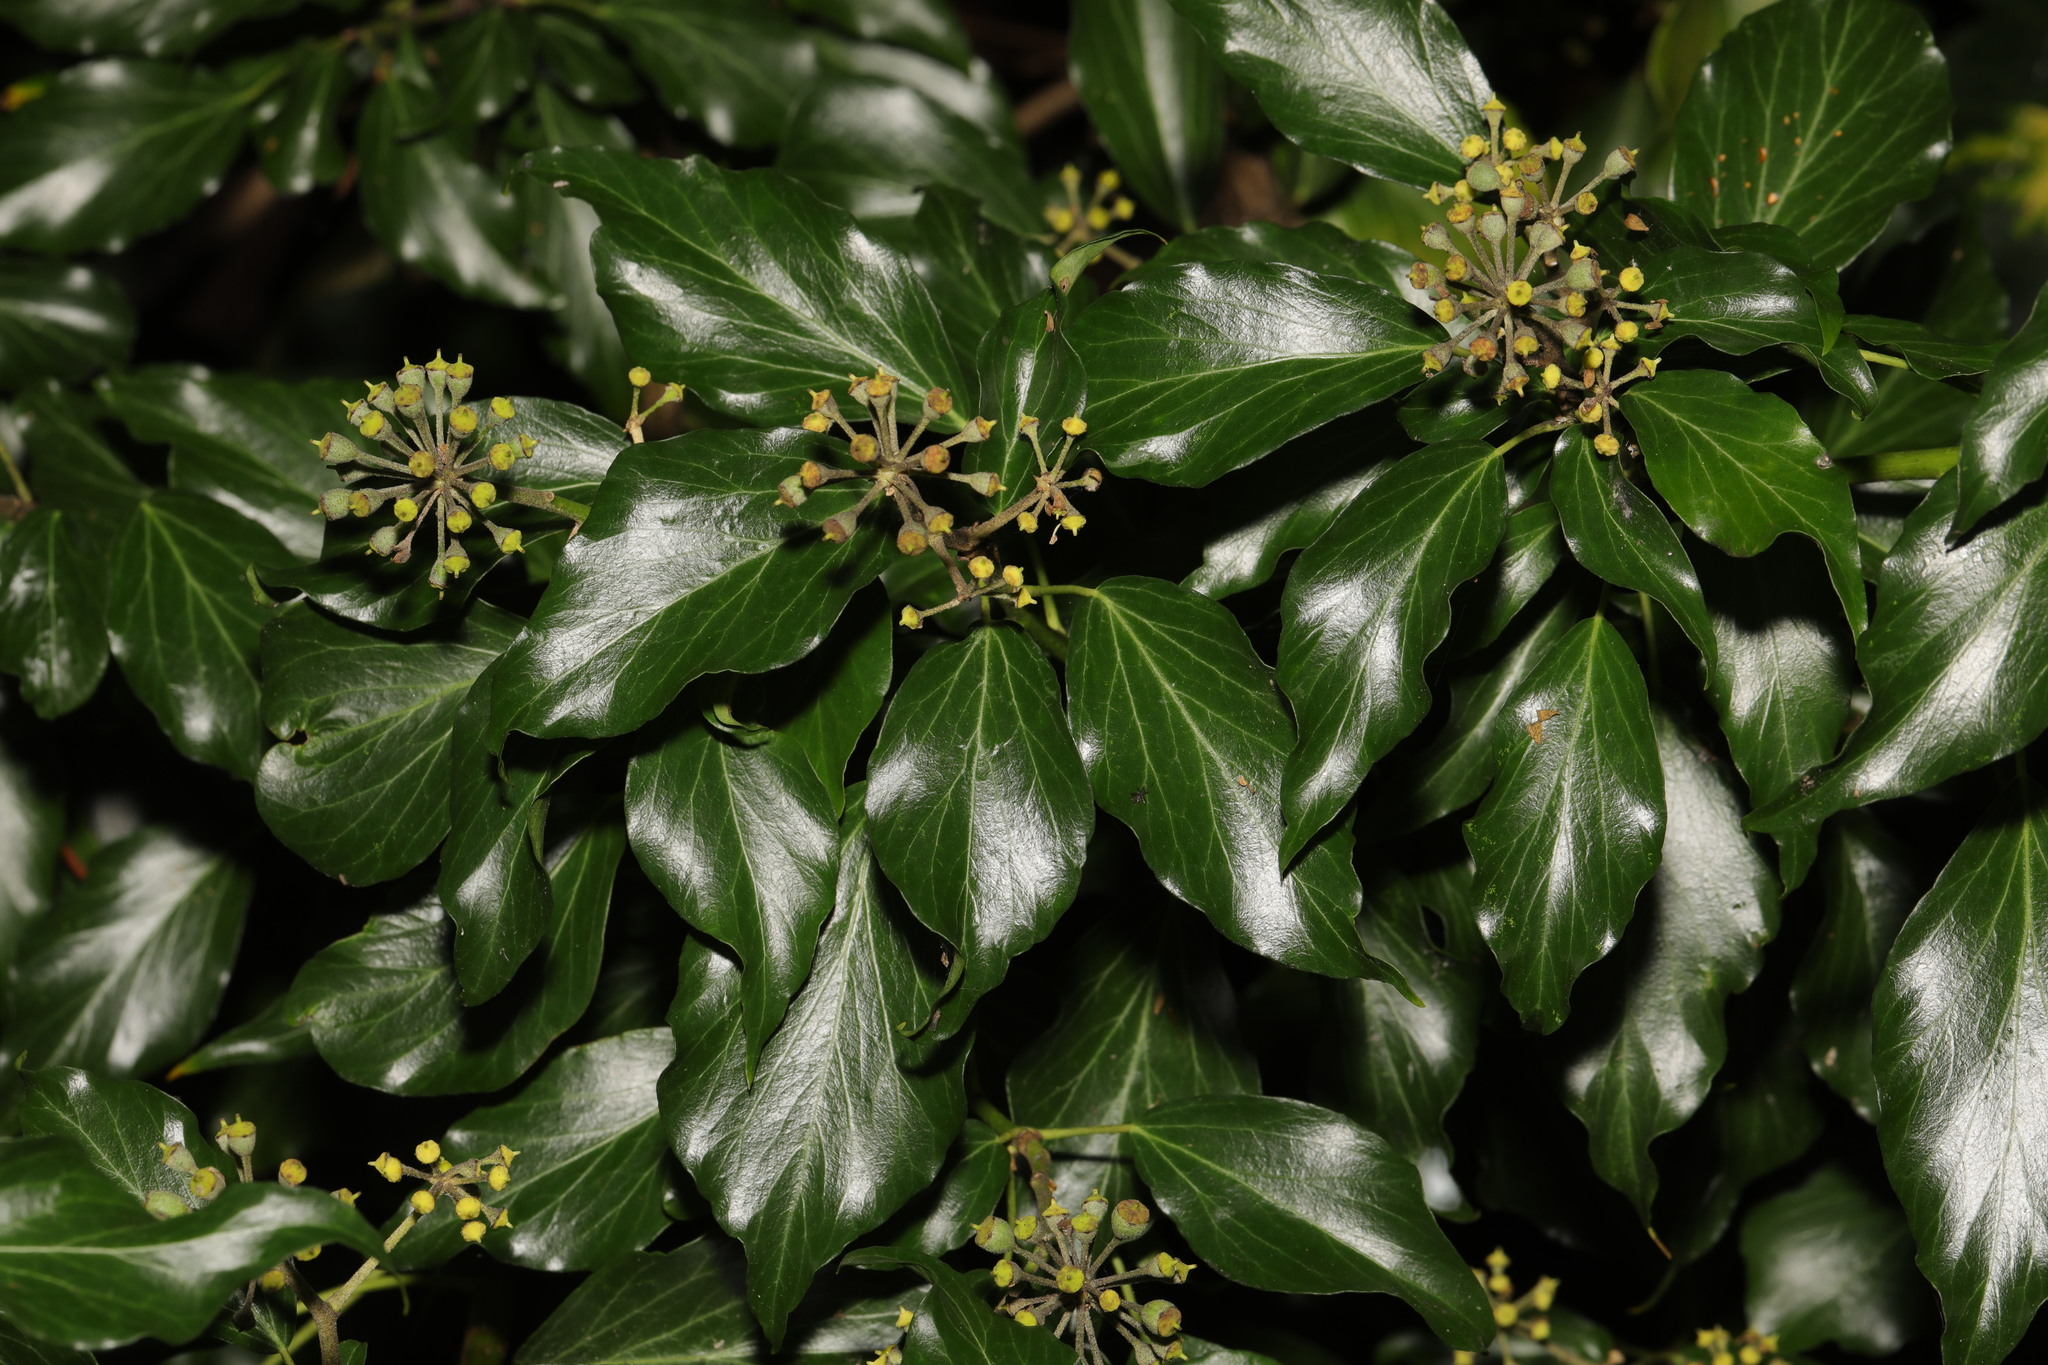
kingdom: Plantae
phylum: Tracheophyta
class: Magnoliopsida
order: Apiales
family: Araliaceae
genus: Hedera
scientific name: Hedera helix
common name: Ivy
